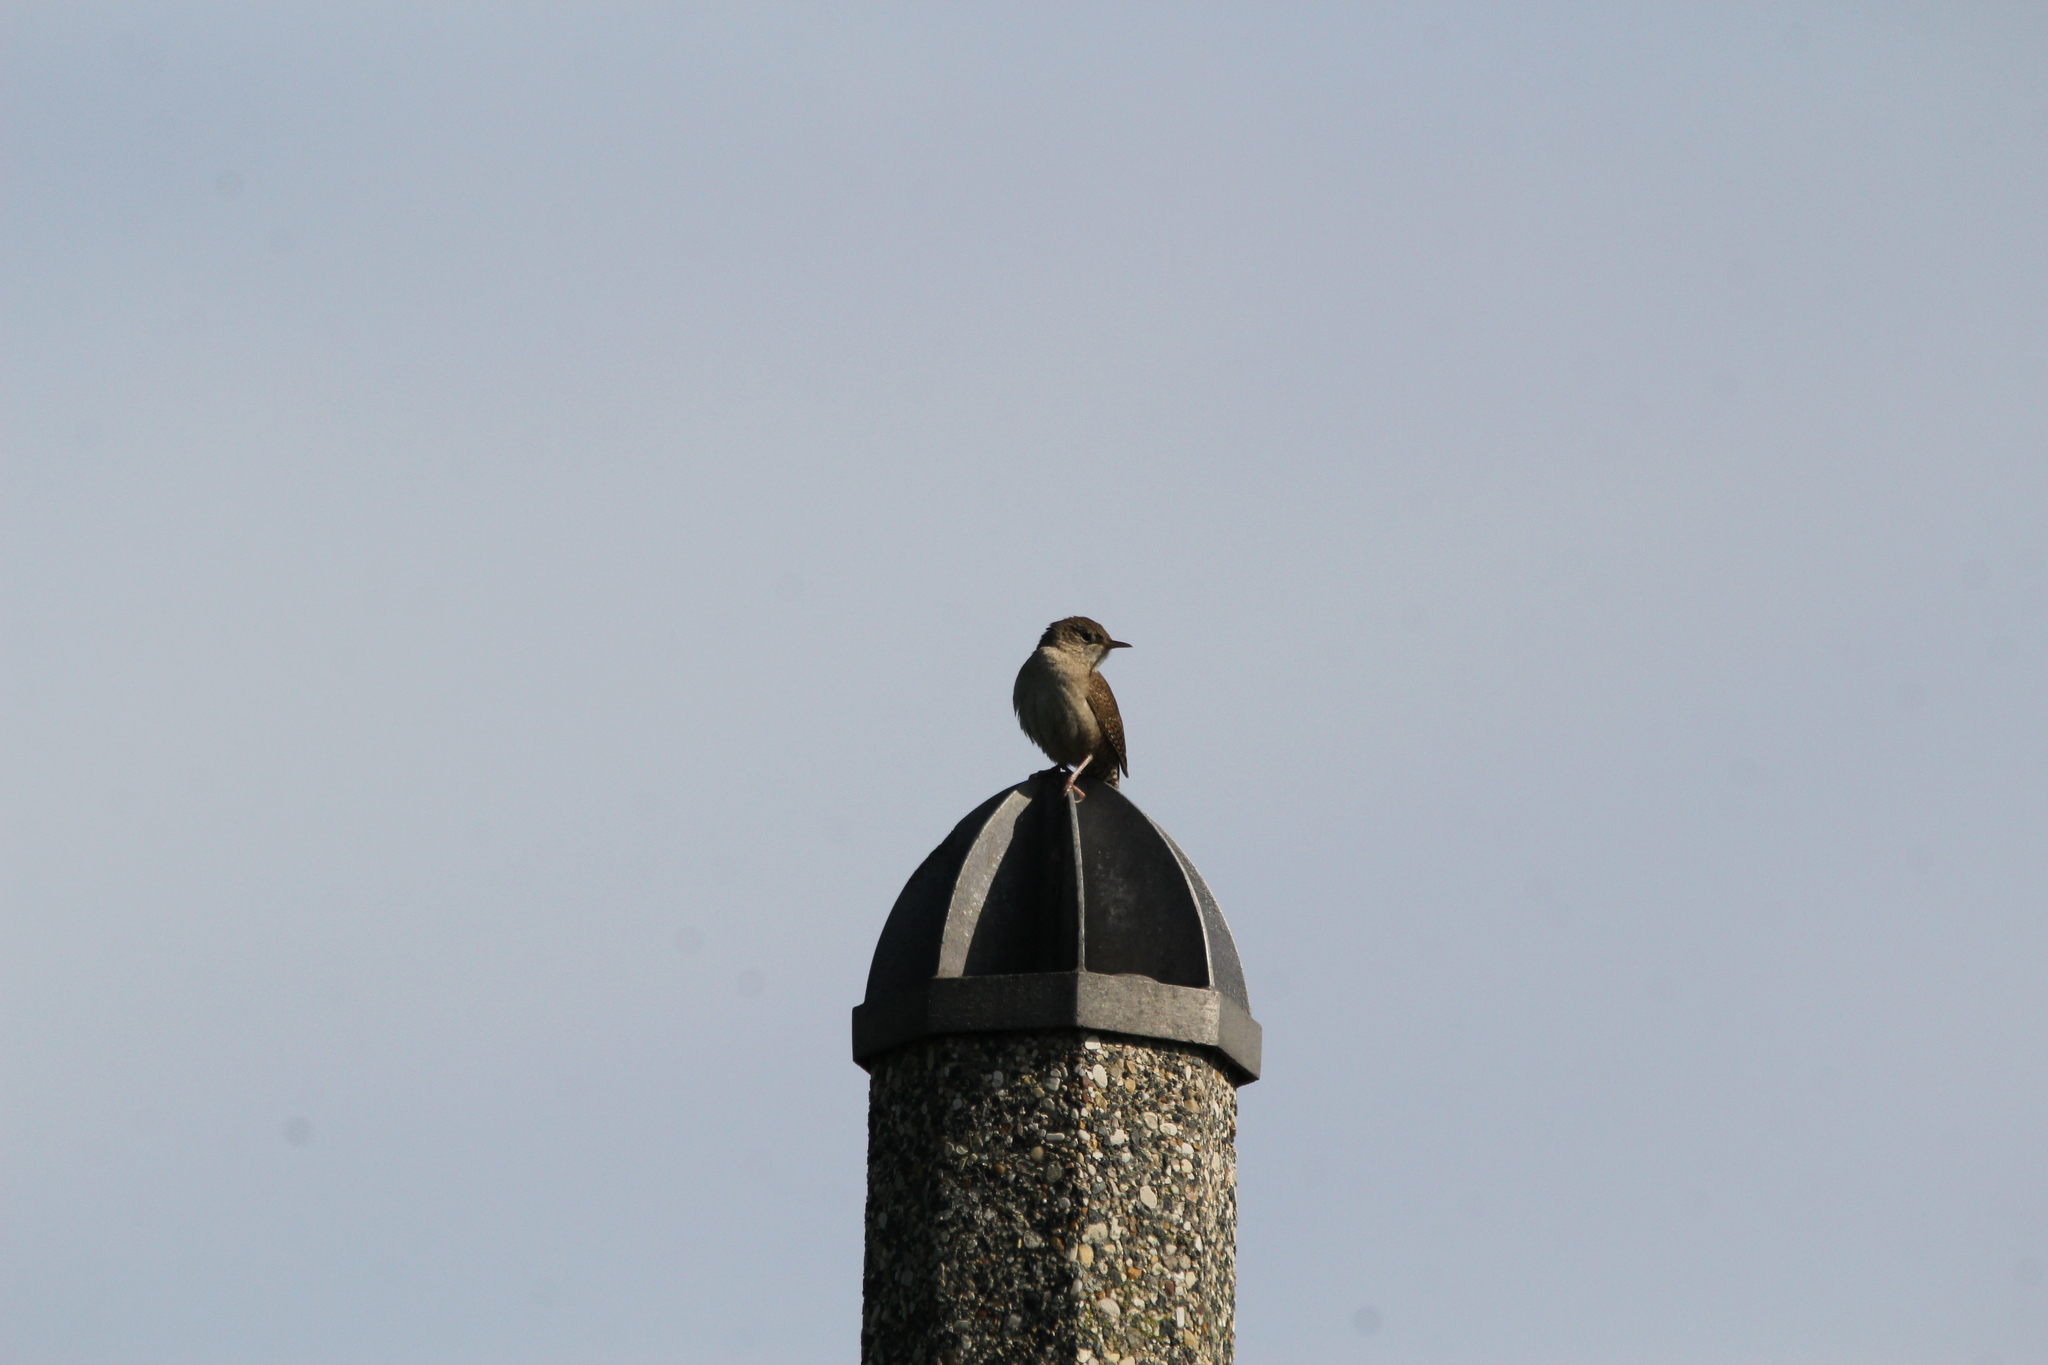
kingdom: Animalia
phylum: Chordata
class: Aves
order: Passeriformes
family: Troglodytidae
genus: Troglodytes
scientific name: Troglodytes aedon
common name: House wren
